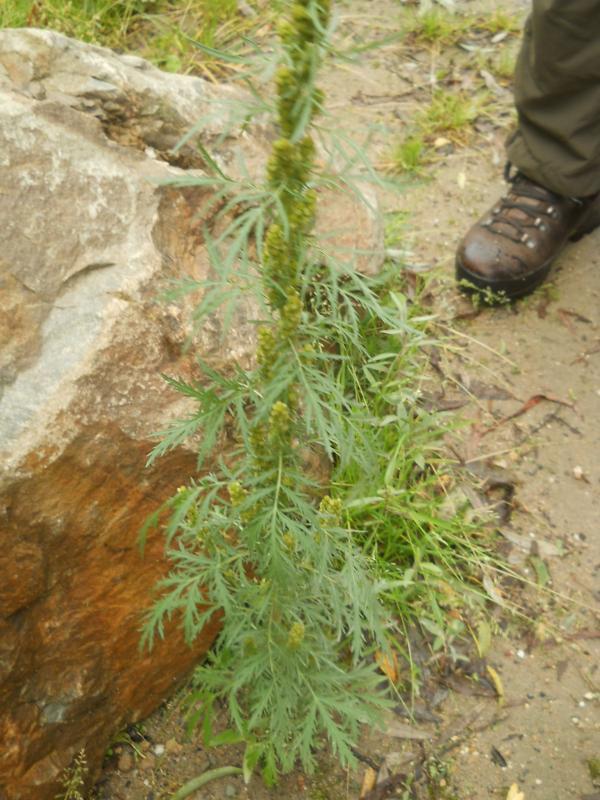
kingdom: Plantae
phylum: Tracheophyta
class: Magnoliopsida
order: Asterales
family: Asteraceae
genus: Artemisia
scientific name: Artemisia biennis
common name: Biennial wormwood
